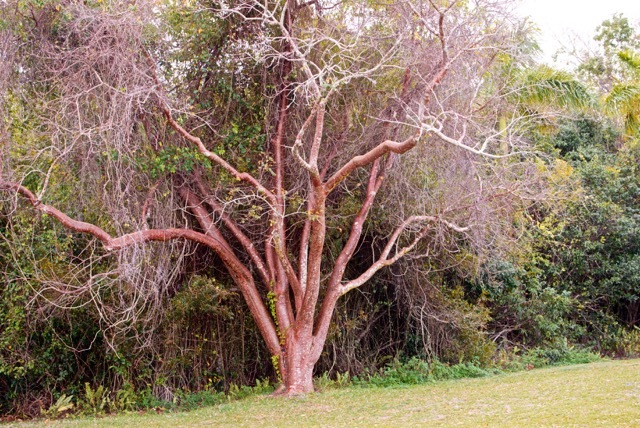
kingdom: Plantae
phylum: Tracheophyta
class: Magnoliopsida
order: Sapindales
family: Burseraceae
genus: Bursera
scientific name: Bursera simaruba
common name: Turpentine tree
